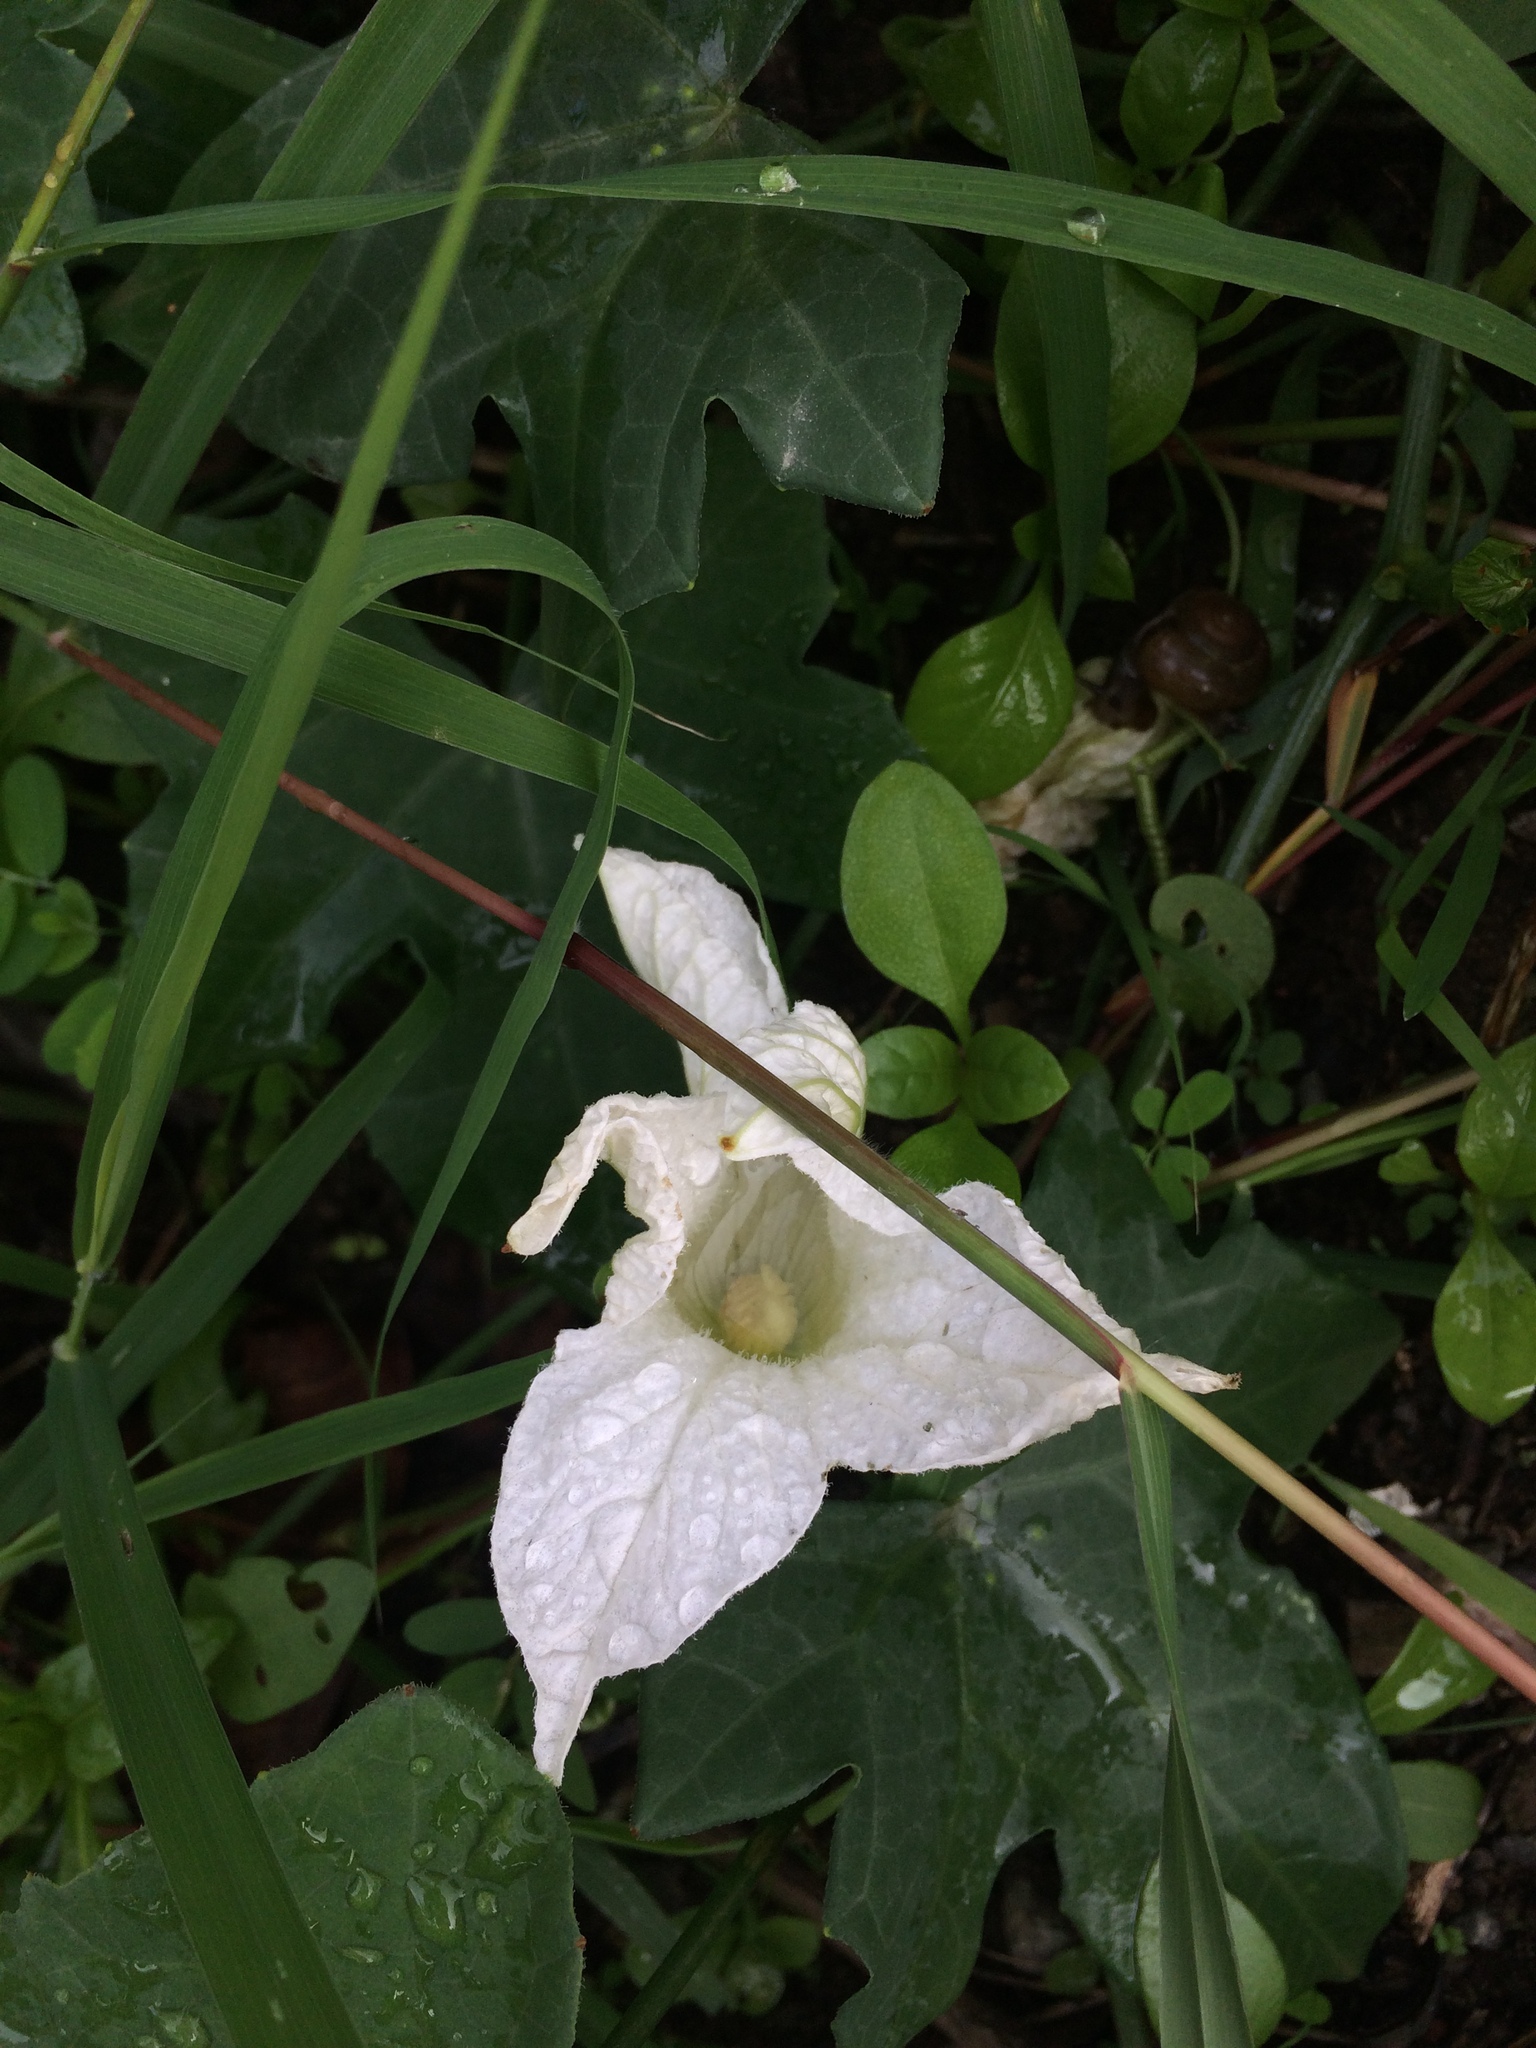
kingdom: Plantae
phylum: Tracheophyta
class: Magnoliopsida
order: Cucurbitales
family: Cucurbitaceae
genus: Coccinia
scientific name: Coccinia grandis
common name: Ivy gourd
